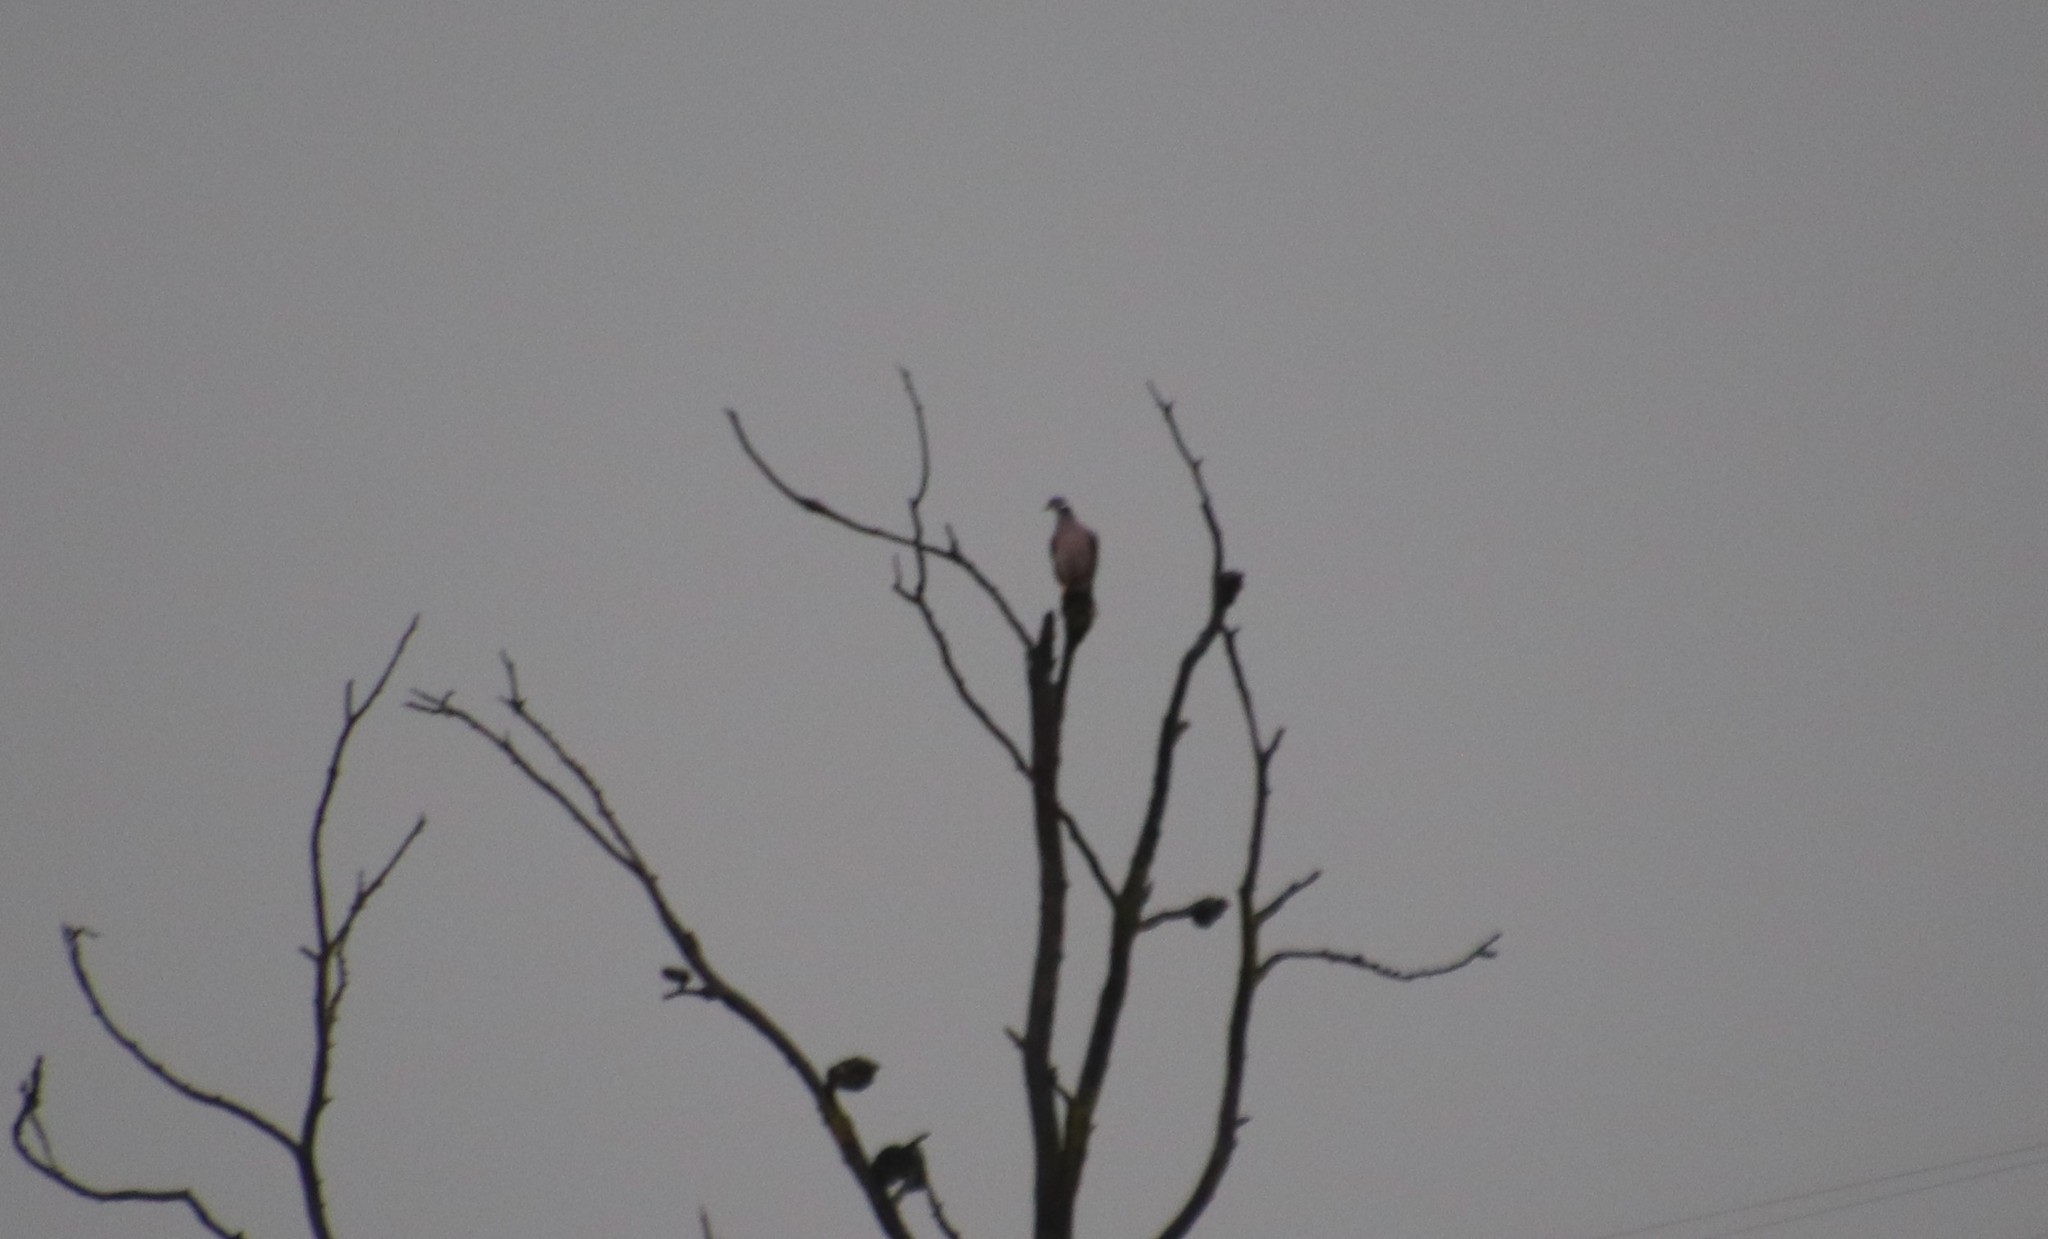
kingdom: Animalia
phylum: Chordata
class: Aves
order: Columbiformes
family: Columbidae
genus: Patagioenas
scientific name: Patagioenas fasciata
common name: Band-tailed pigeon
